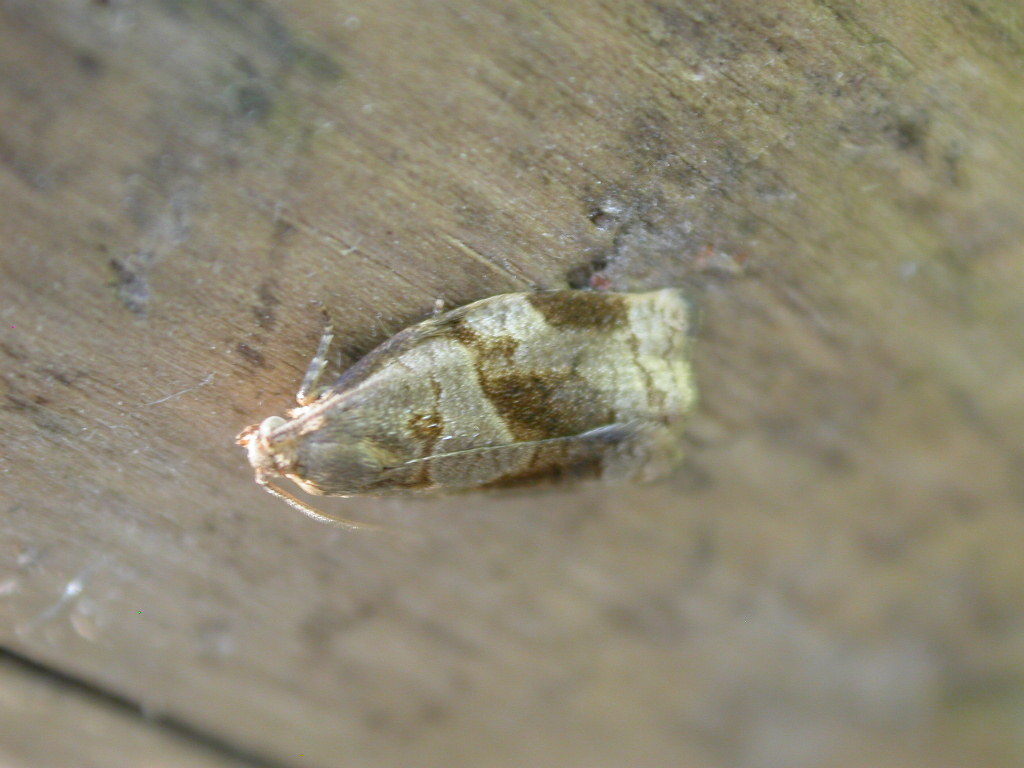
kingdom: Animalia
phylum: Arthropoda
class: Insecta
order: Lepidoptera
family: Tortricidae
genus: Archips
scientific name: Archips rosana
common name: Rose tortrix
